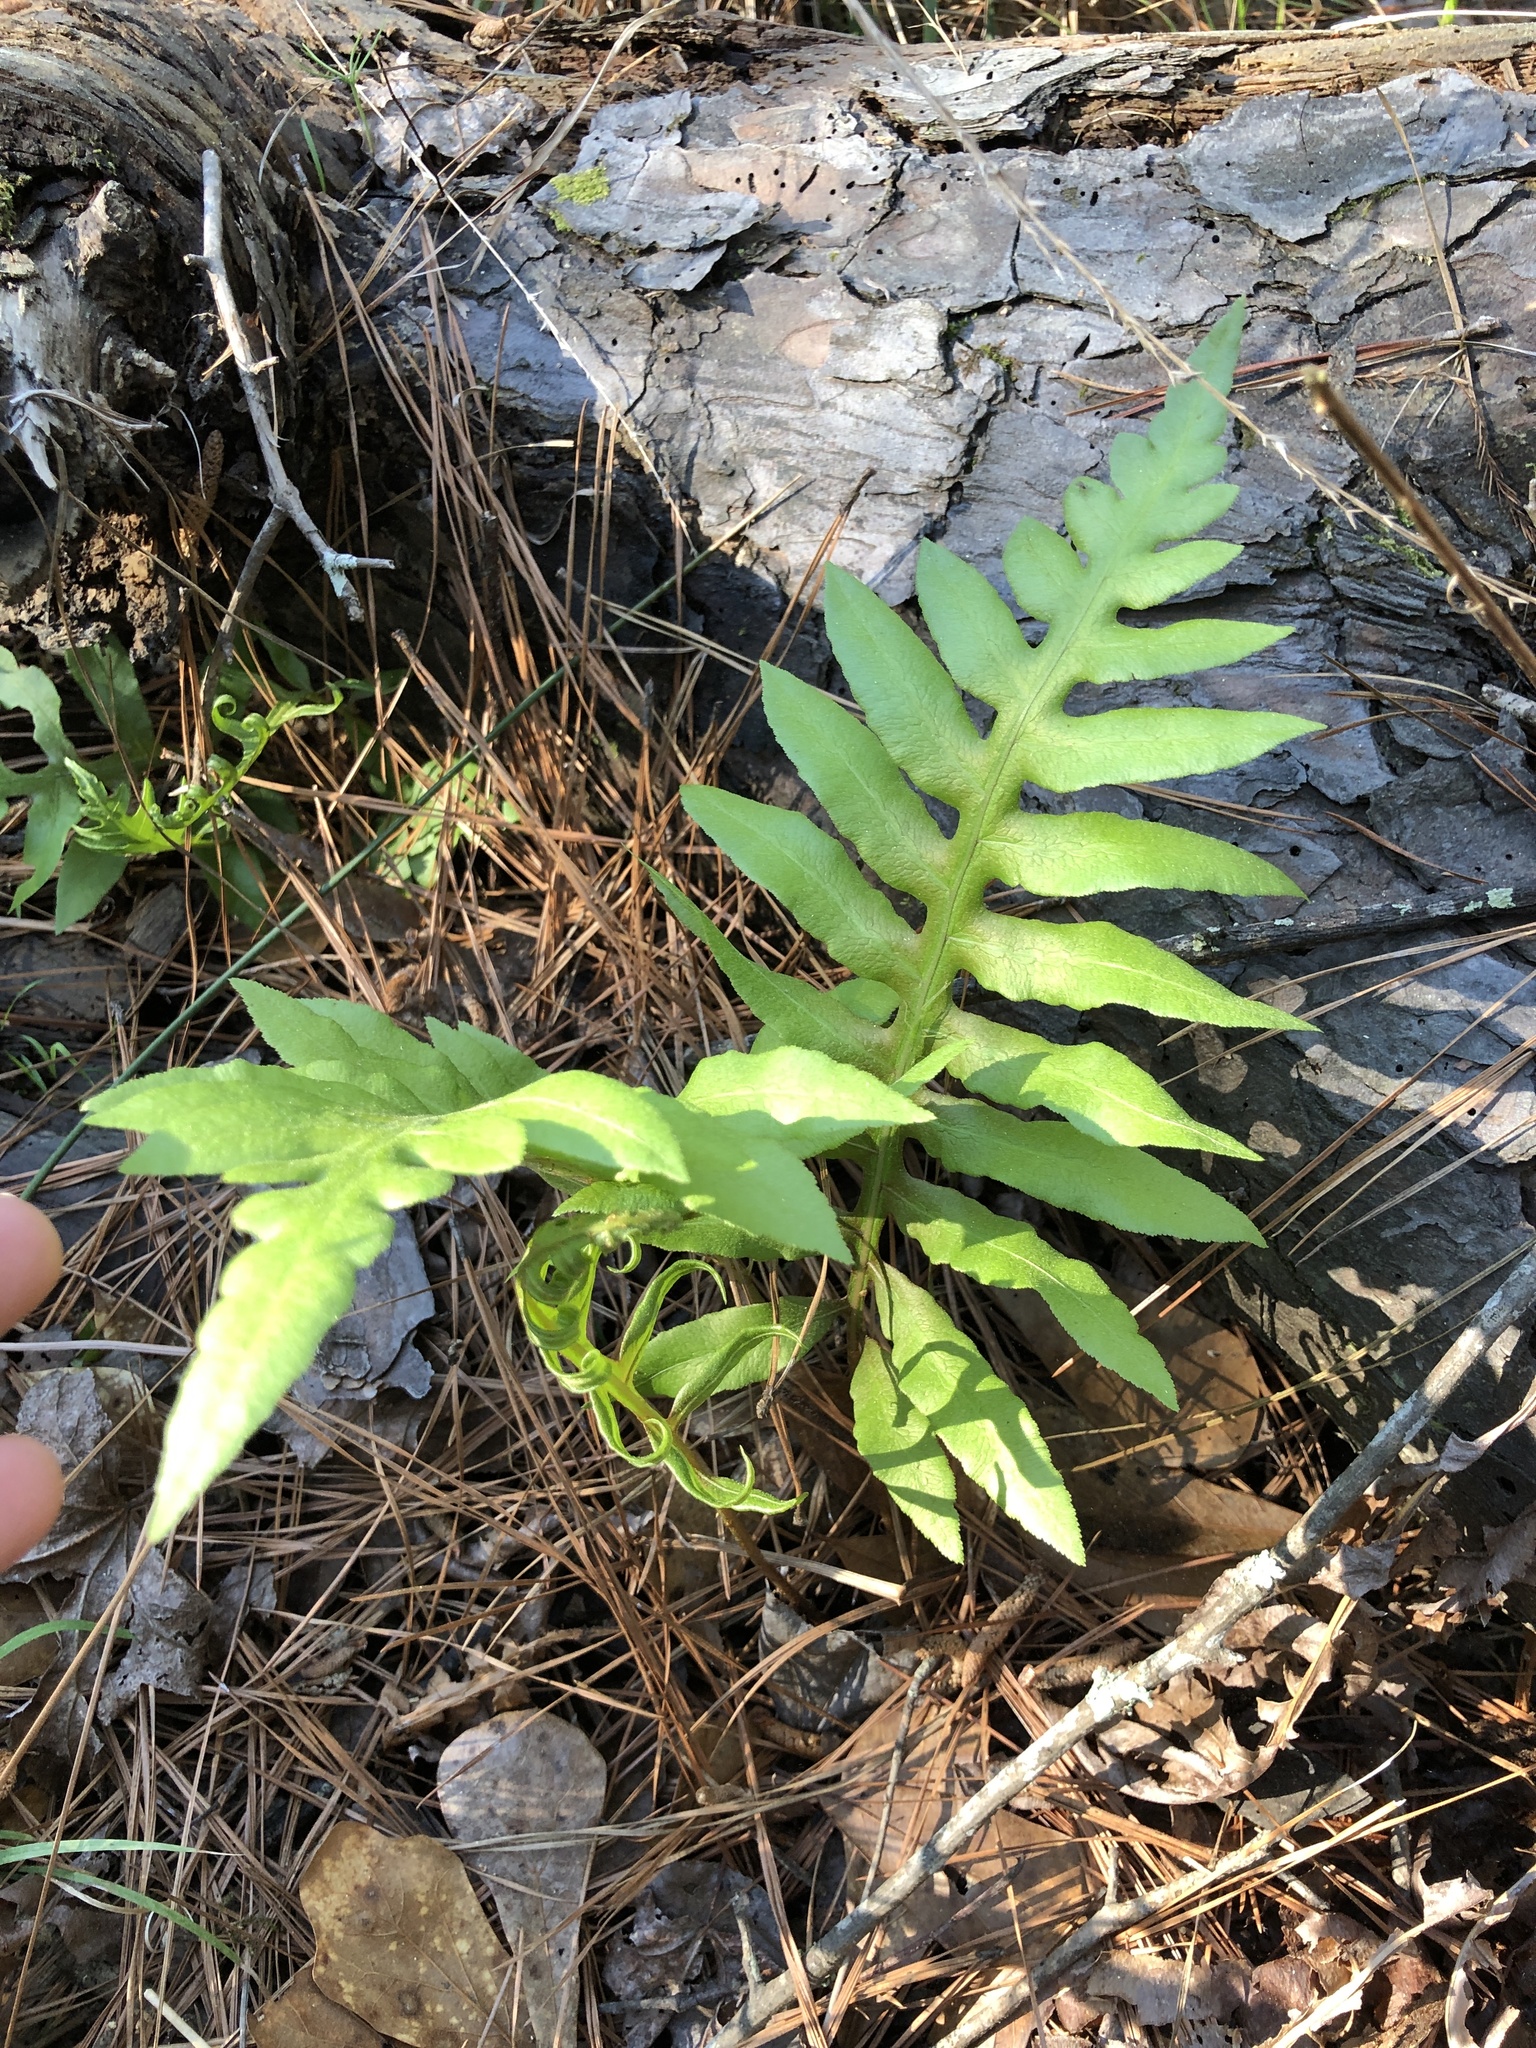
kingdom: Plantae
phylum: Tracheophyta
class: Polypodiopsida
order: Polypodiales
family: Blechnaceae
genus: Lorinseria
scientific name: Lorinseria areolata
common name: Dwarf chain fern
